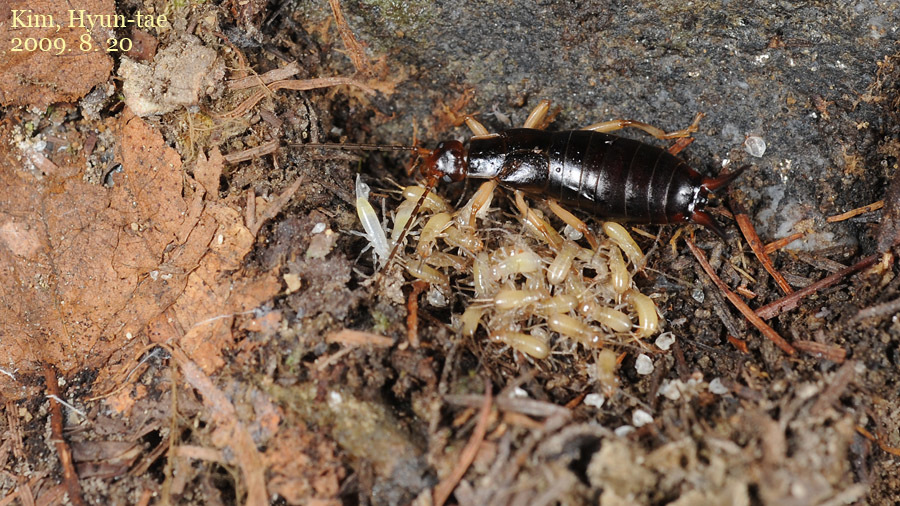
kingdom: Animalia
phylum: Arthropoda
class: Insecta
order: Dermaptera
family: Forficulidae
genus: Forficula
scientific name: Forficula scudderii
